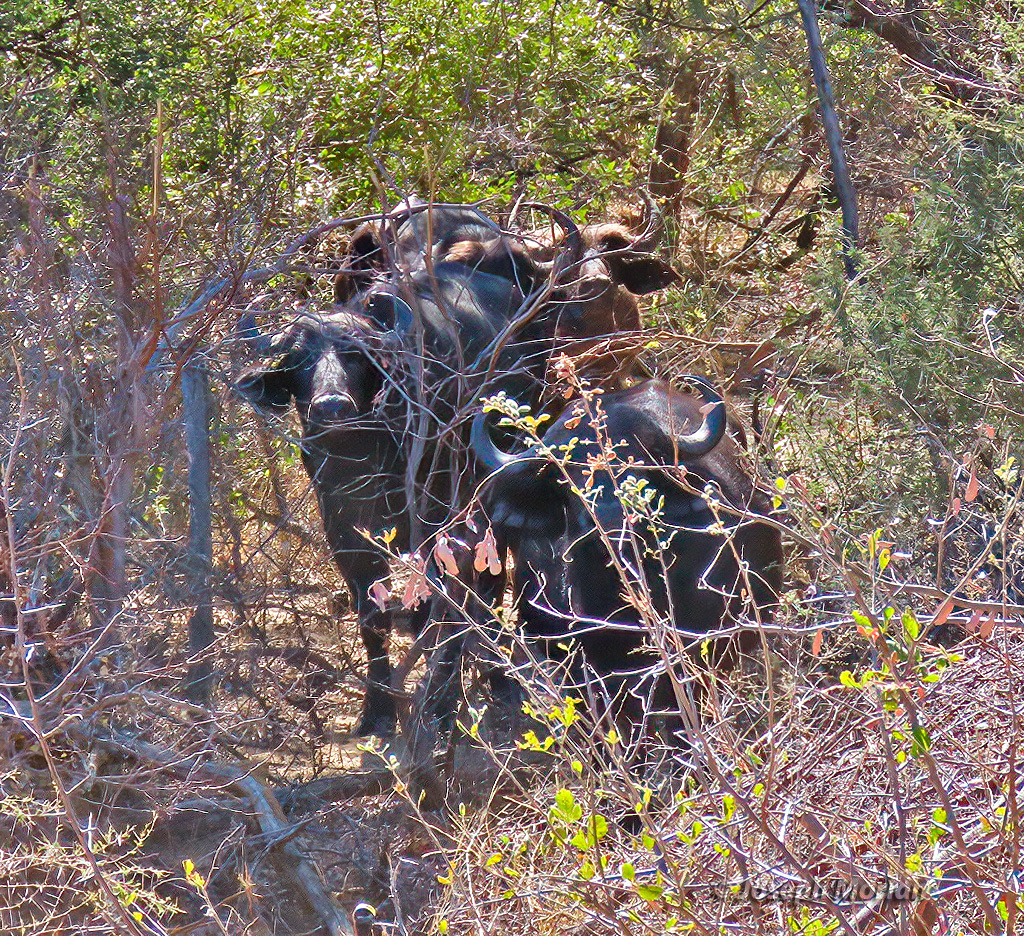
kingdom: Animalia
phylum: Chordata
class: Mammalia
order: Artiodactyla
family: Bovidae
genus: Syncerus
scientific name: Syncerus caffer
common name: African buffalo
